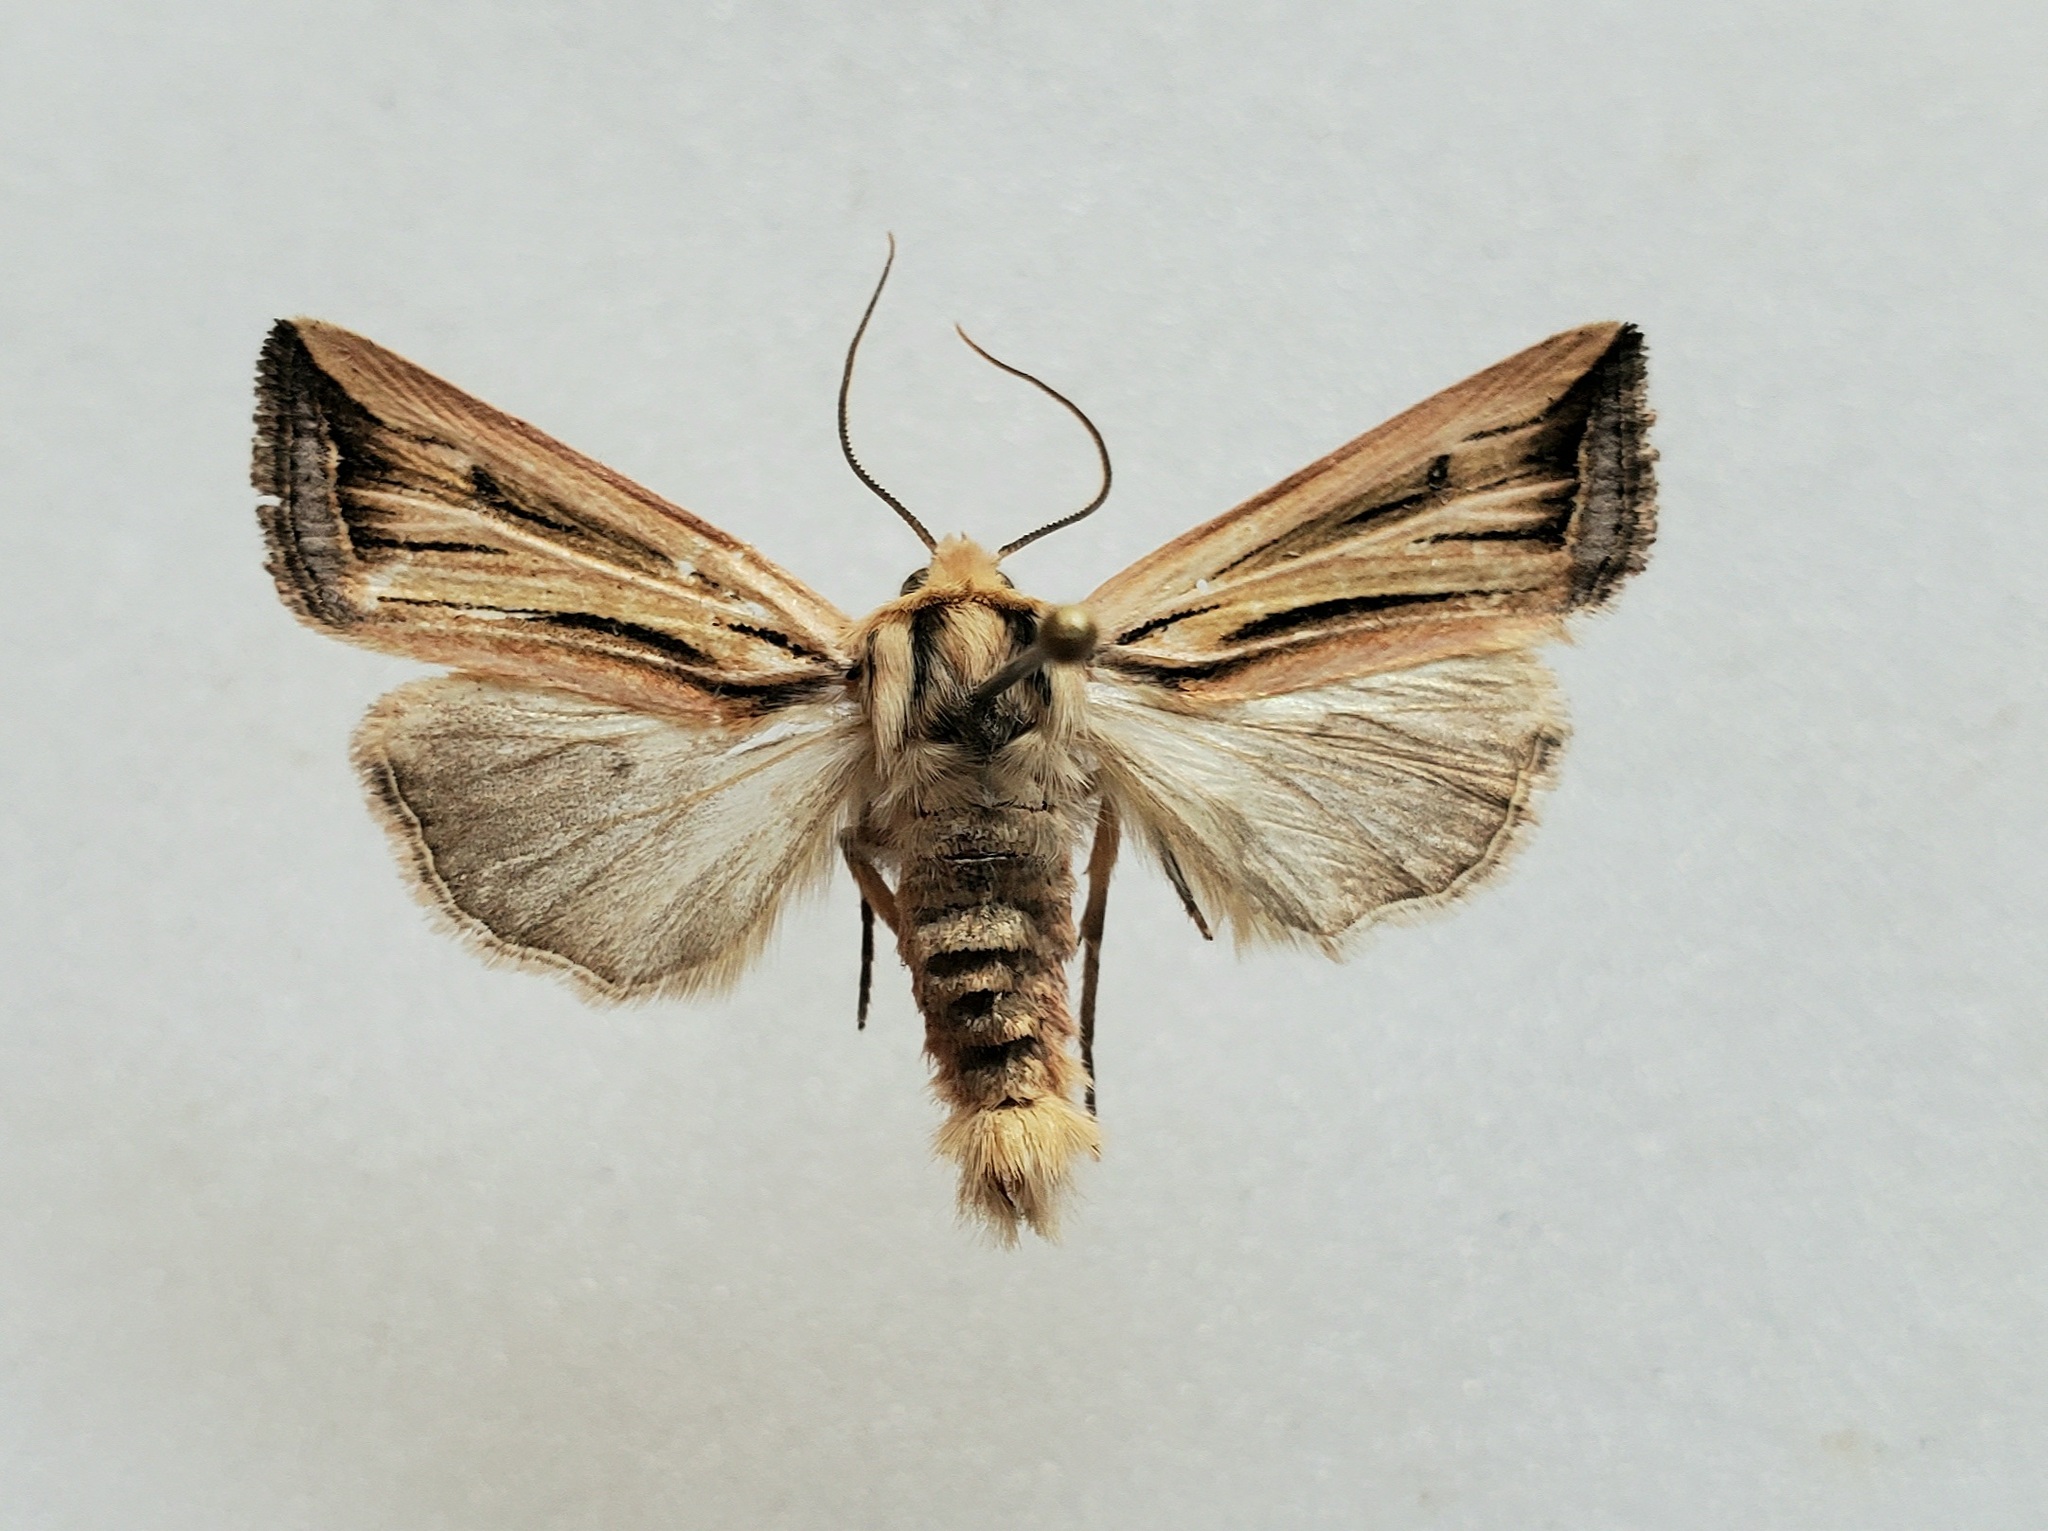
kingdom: Animalia
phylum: Arthropoda
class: Insecta
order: Lepidoptera
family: Noctuidae
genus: Eriopyga
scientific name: Eriopyga ferricola
